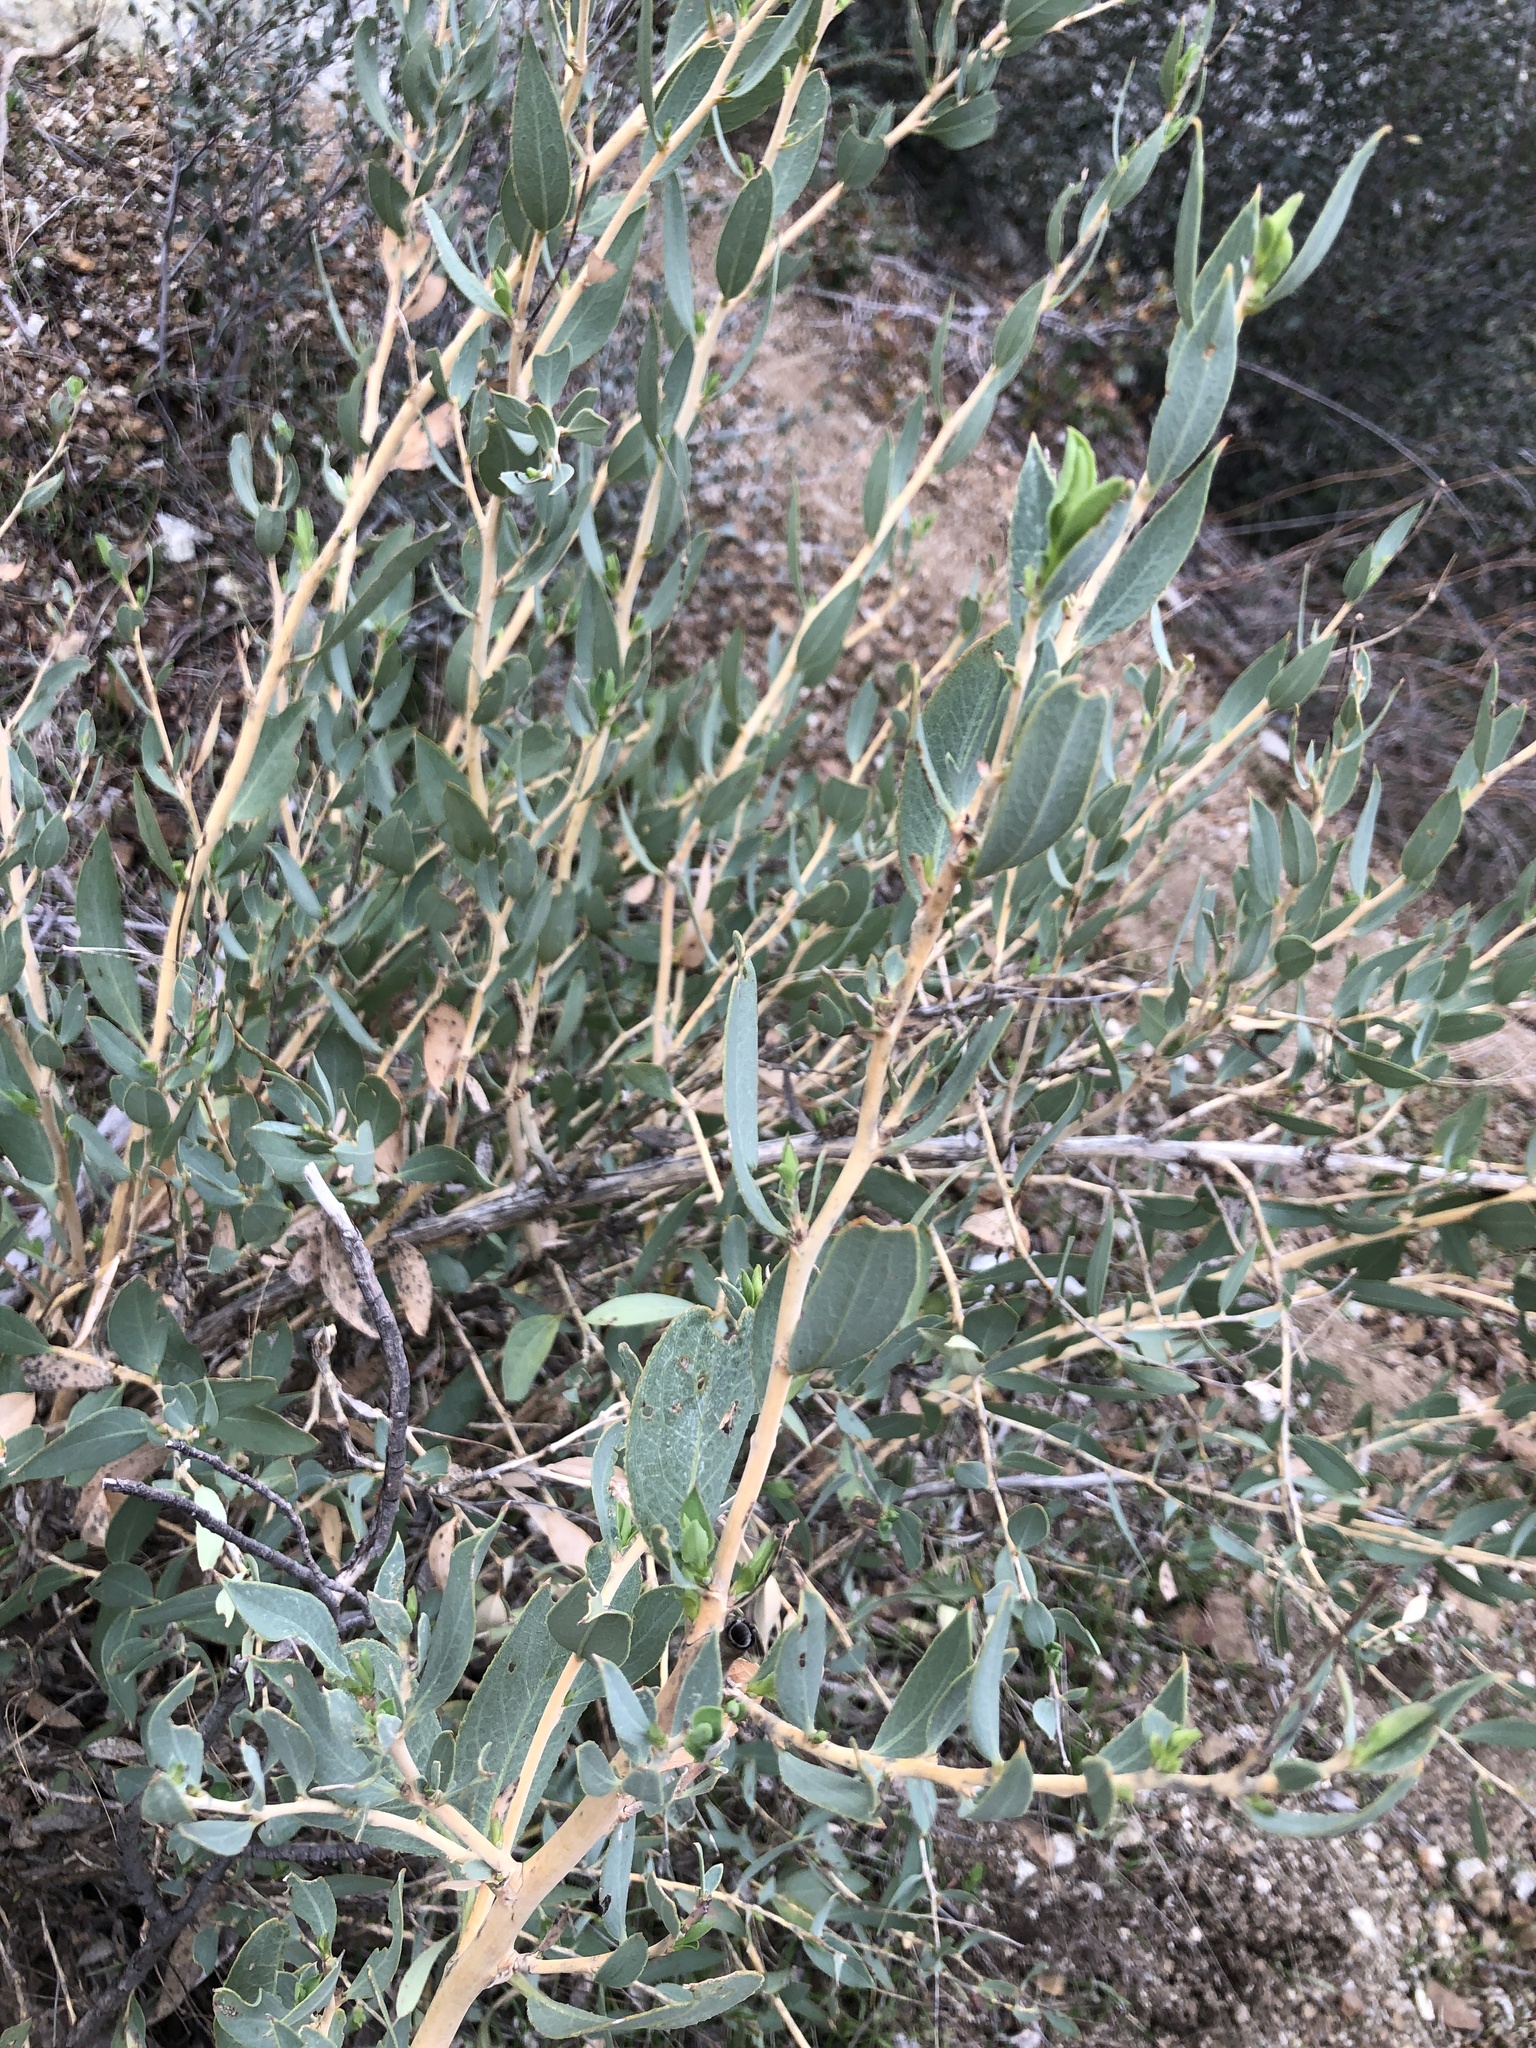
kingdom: Plantae
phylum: Tracheophyta
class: Magnoliopsida
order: Ranunculales
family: Papaveraceae
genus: Dendromecon
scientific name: Dendromecon rigida
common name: Tree poppy
